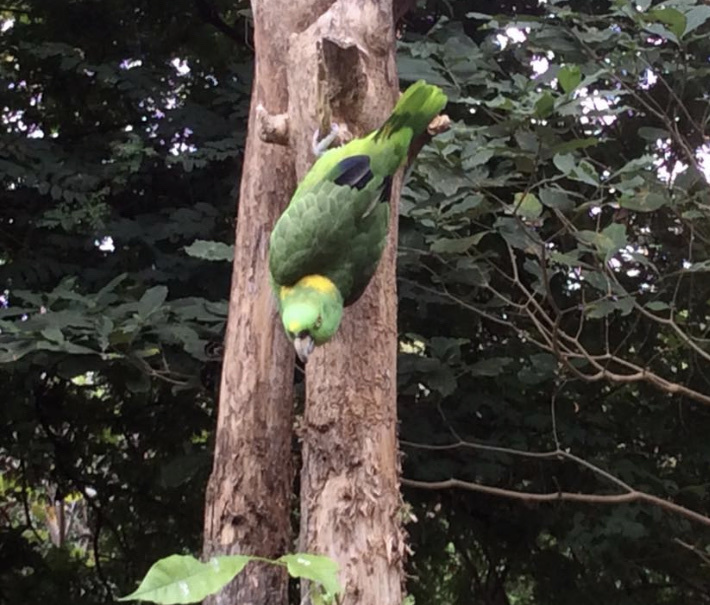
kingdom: Animalia
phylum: Chordata
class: Aves
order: Psittaciformes
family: Psittacidae
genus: Amazona
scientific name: Amazona auropalliata
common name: Yellow-naped amazon
